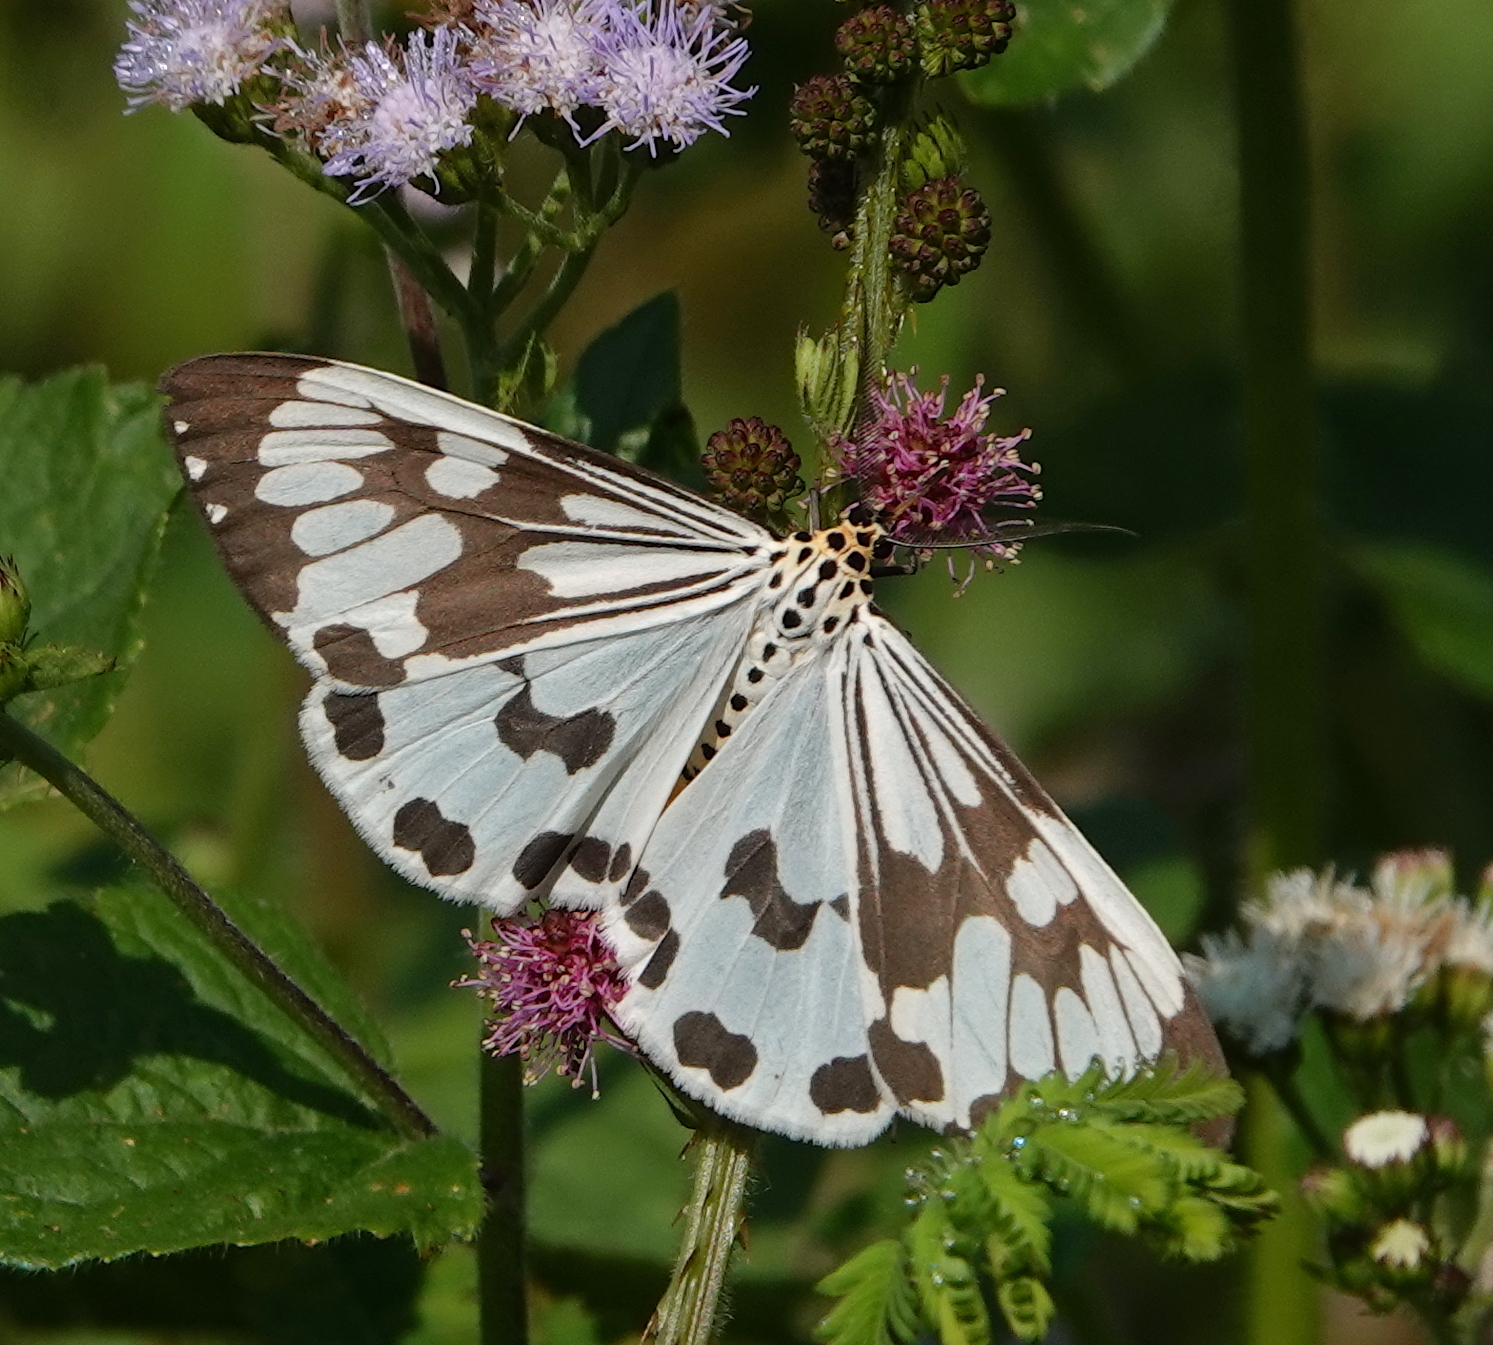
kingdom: Animalia
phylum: Arthropoda
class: Insecta
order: Lepidoptera
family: Erebidae
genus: Nyctemera
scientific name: Nyctemera adversata
